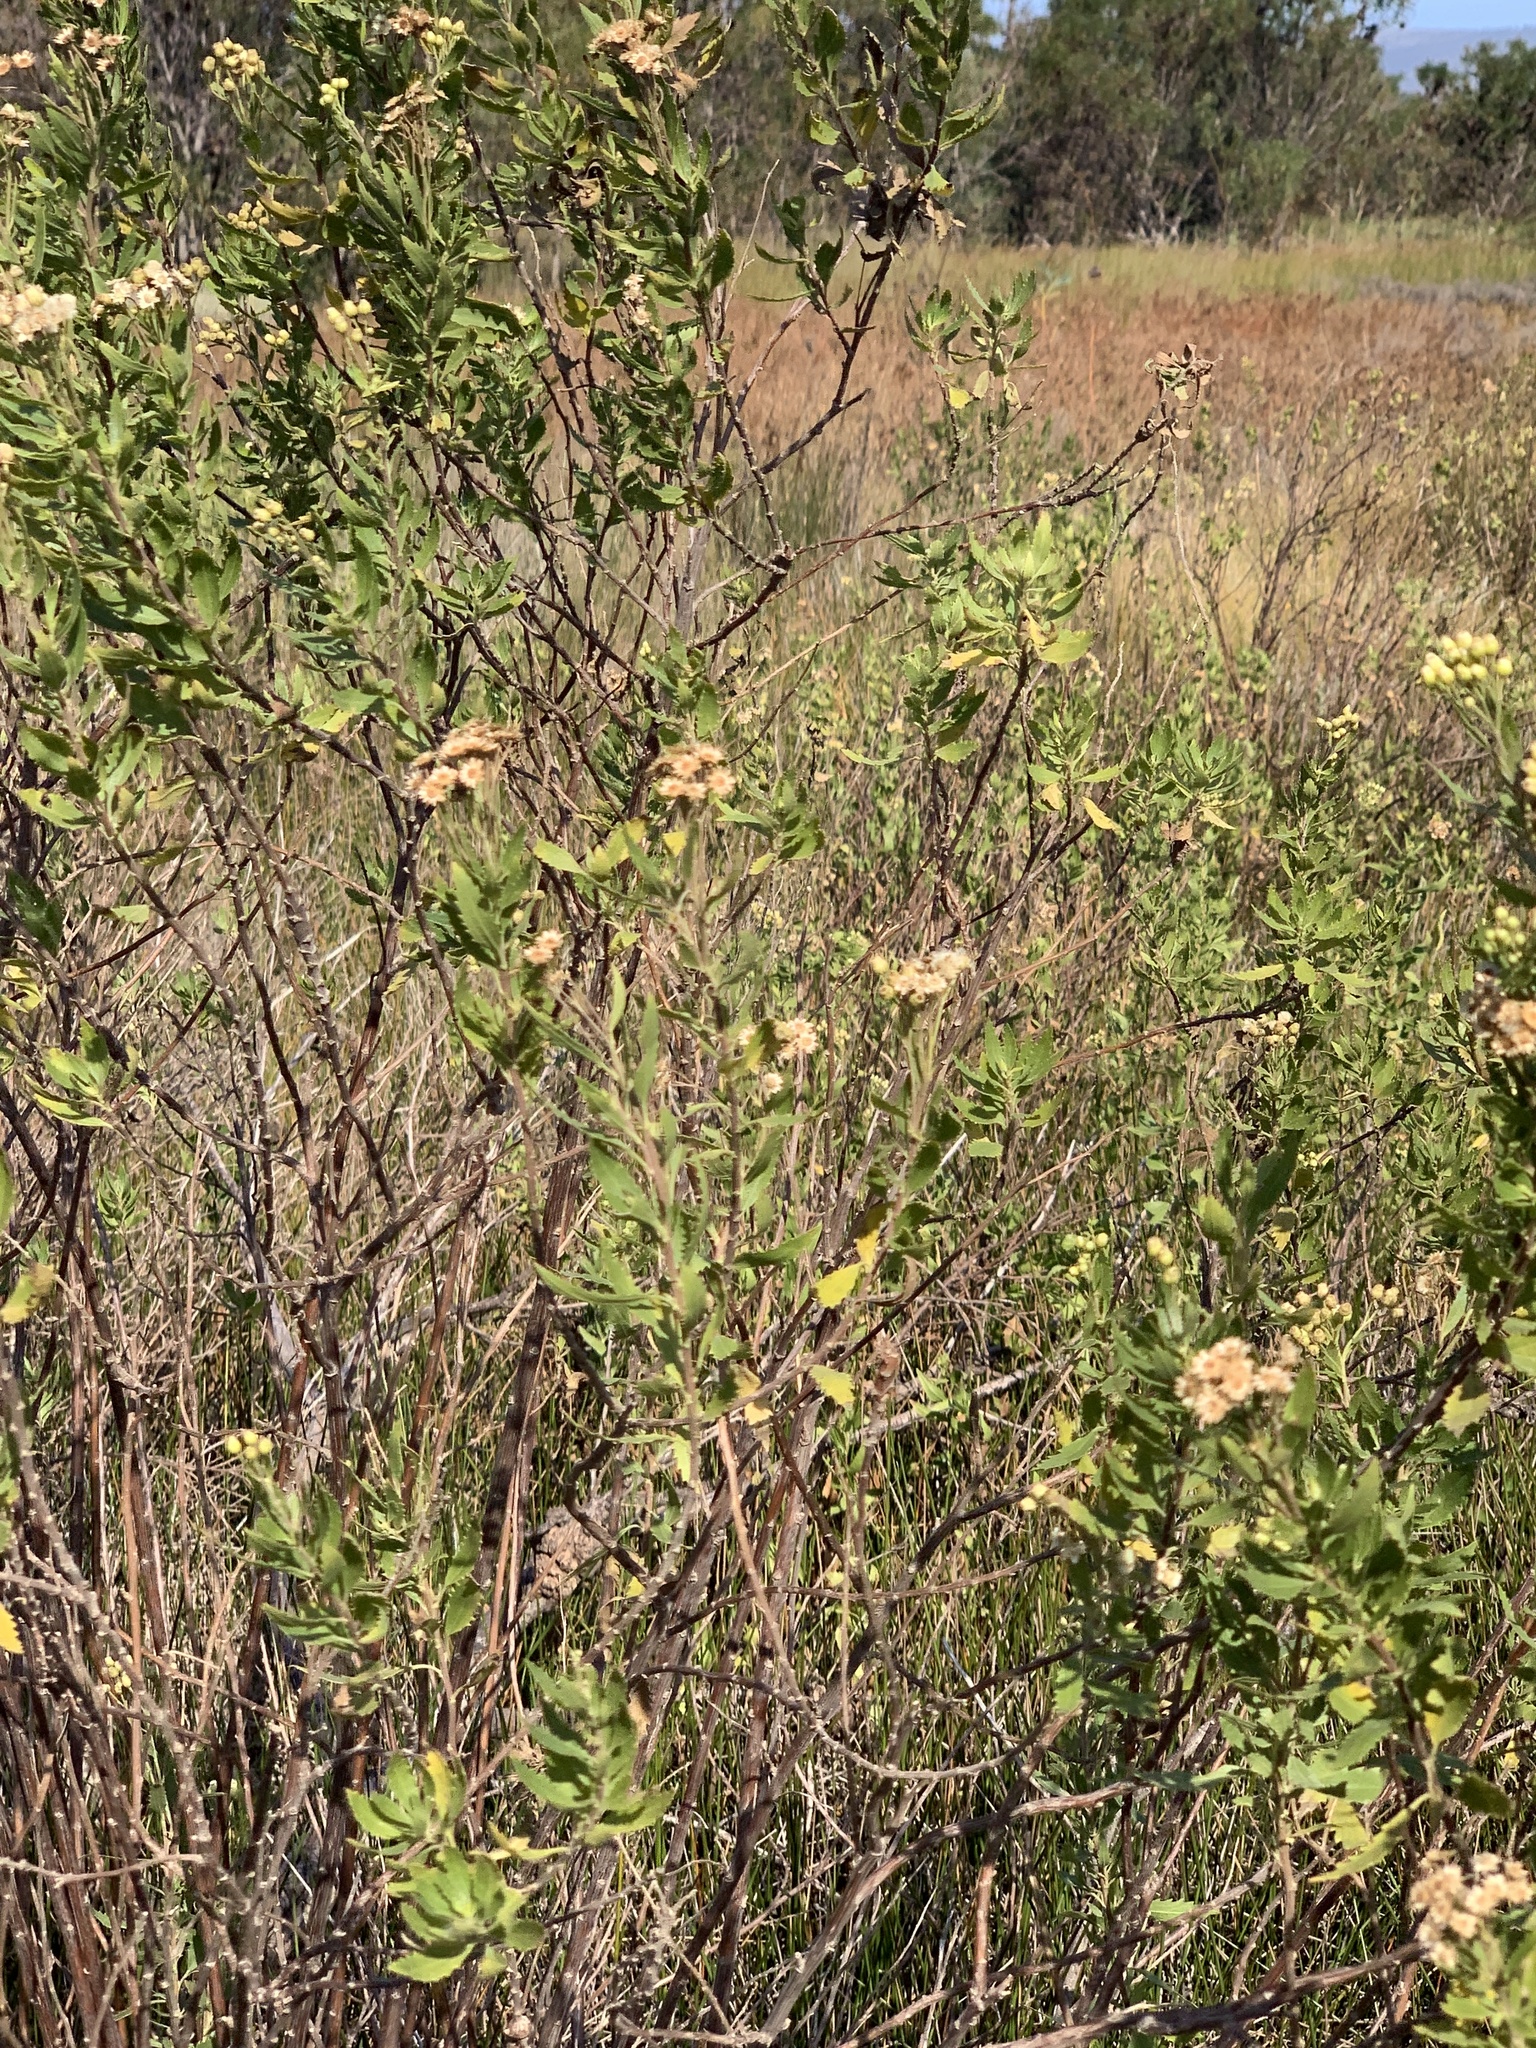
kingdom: Plantae
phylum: Tracheophyta
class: Magnoliopsida
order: Asterales
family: Asteraceae
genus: Nidorella
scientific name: Nidorella ivifolia
